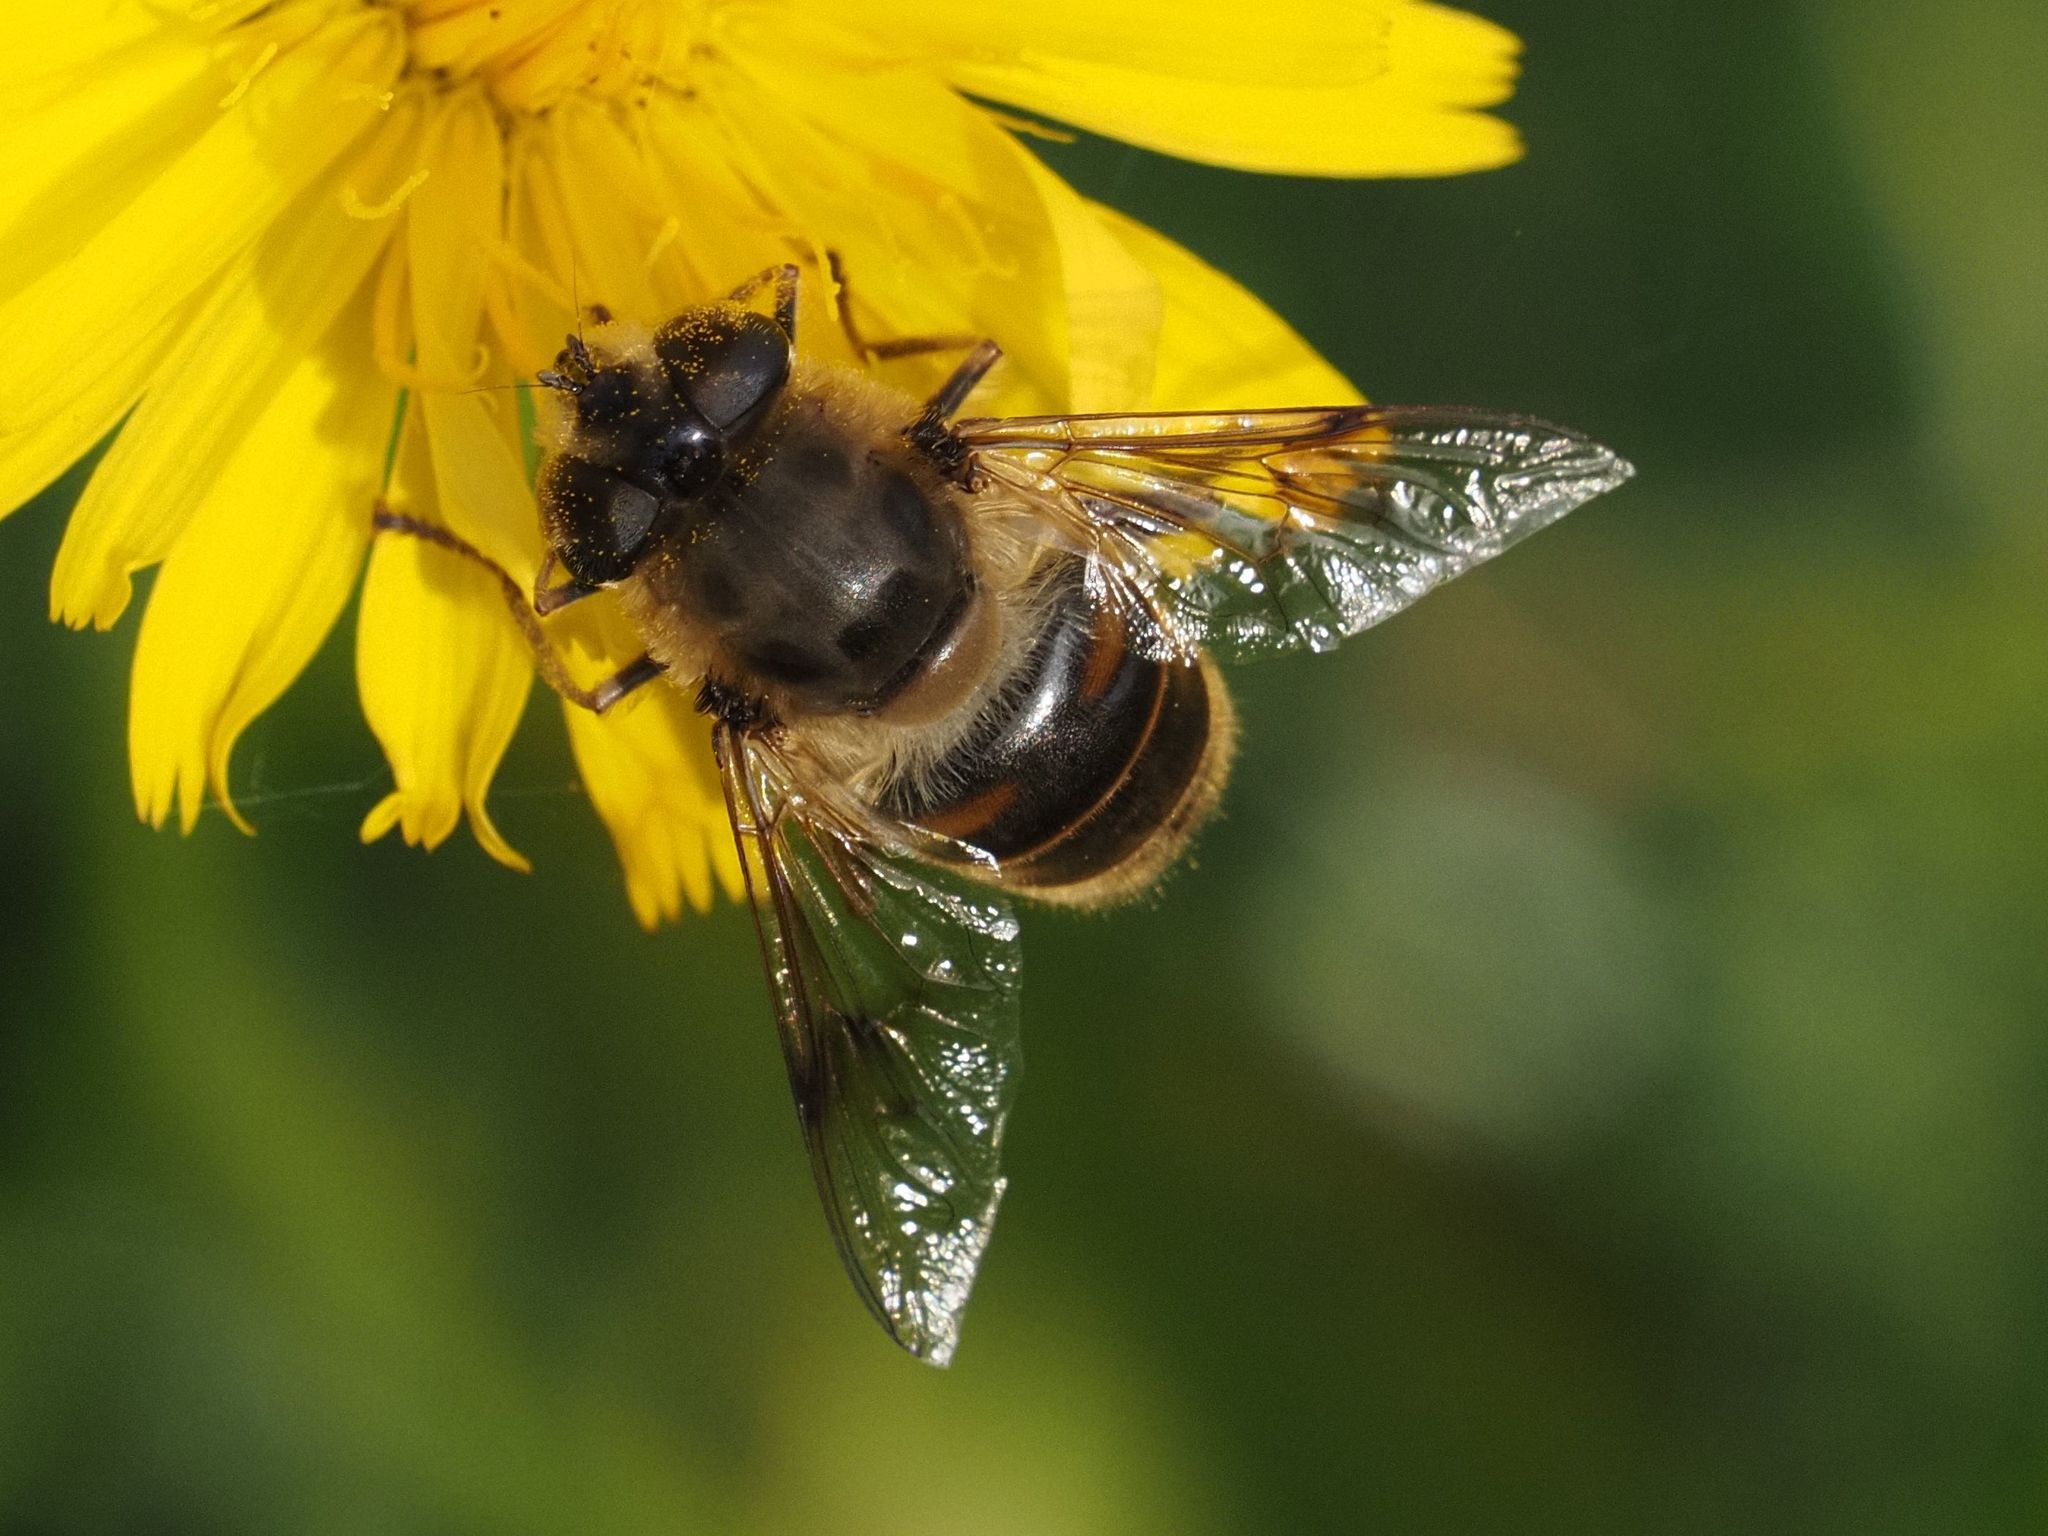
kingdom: Animalia
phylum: Arthropoda
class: Insecta
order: Diptera
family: Syrphidae
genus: Eristalis
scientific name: Eristalis tenax
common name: Drone fly
